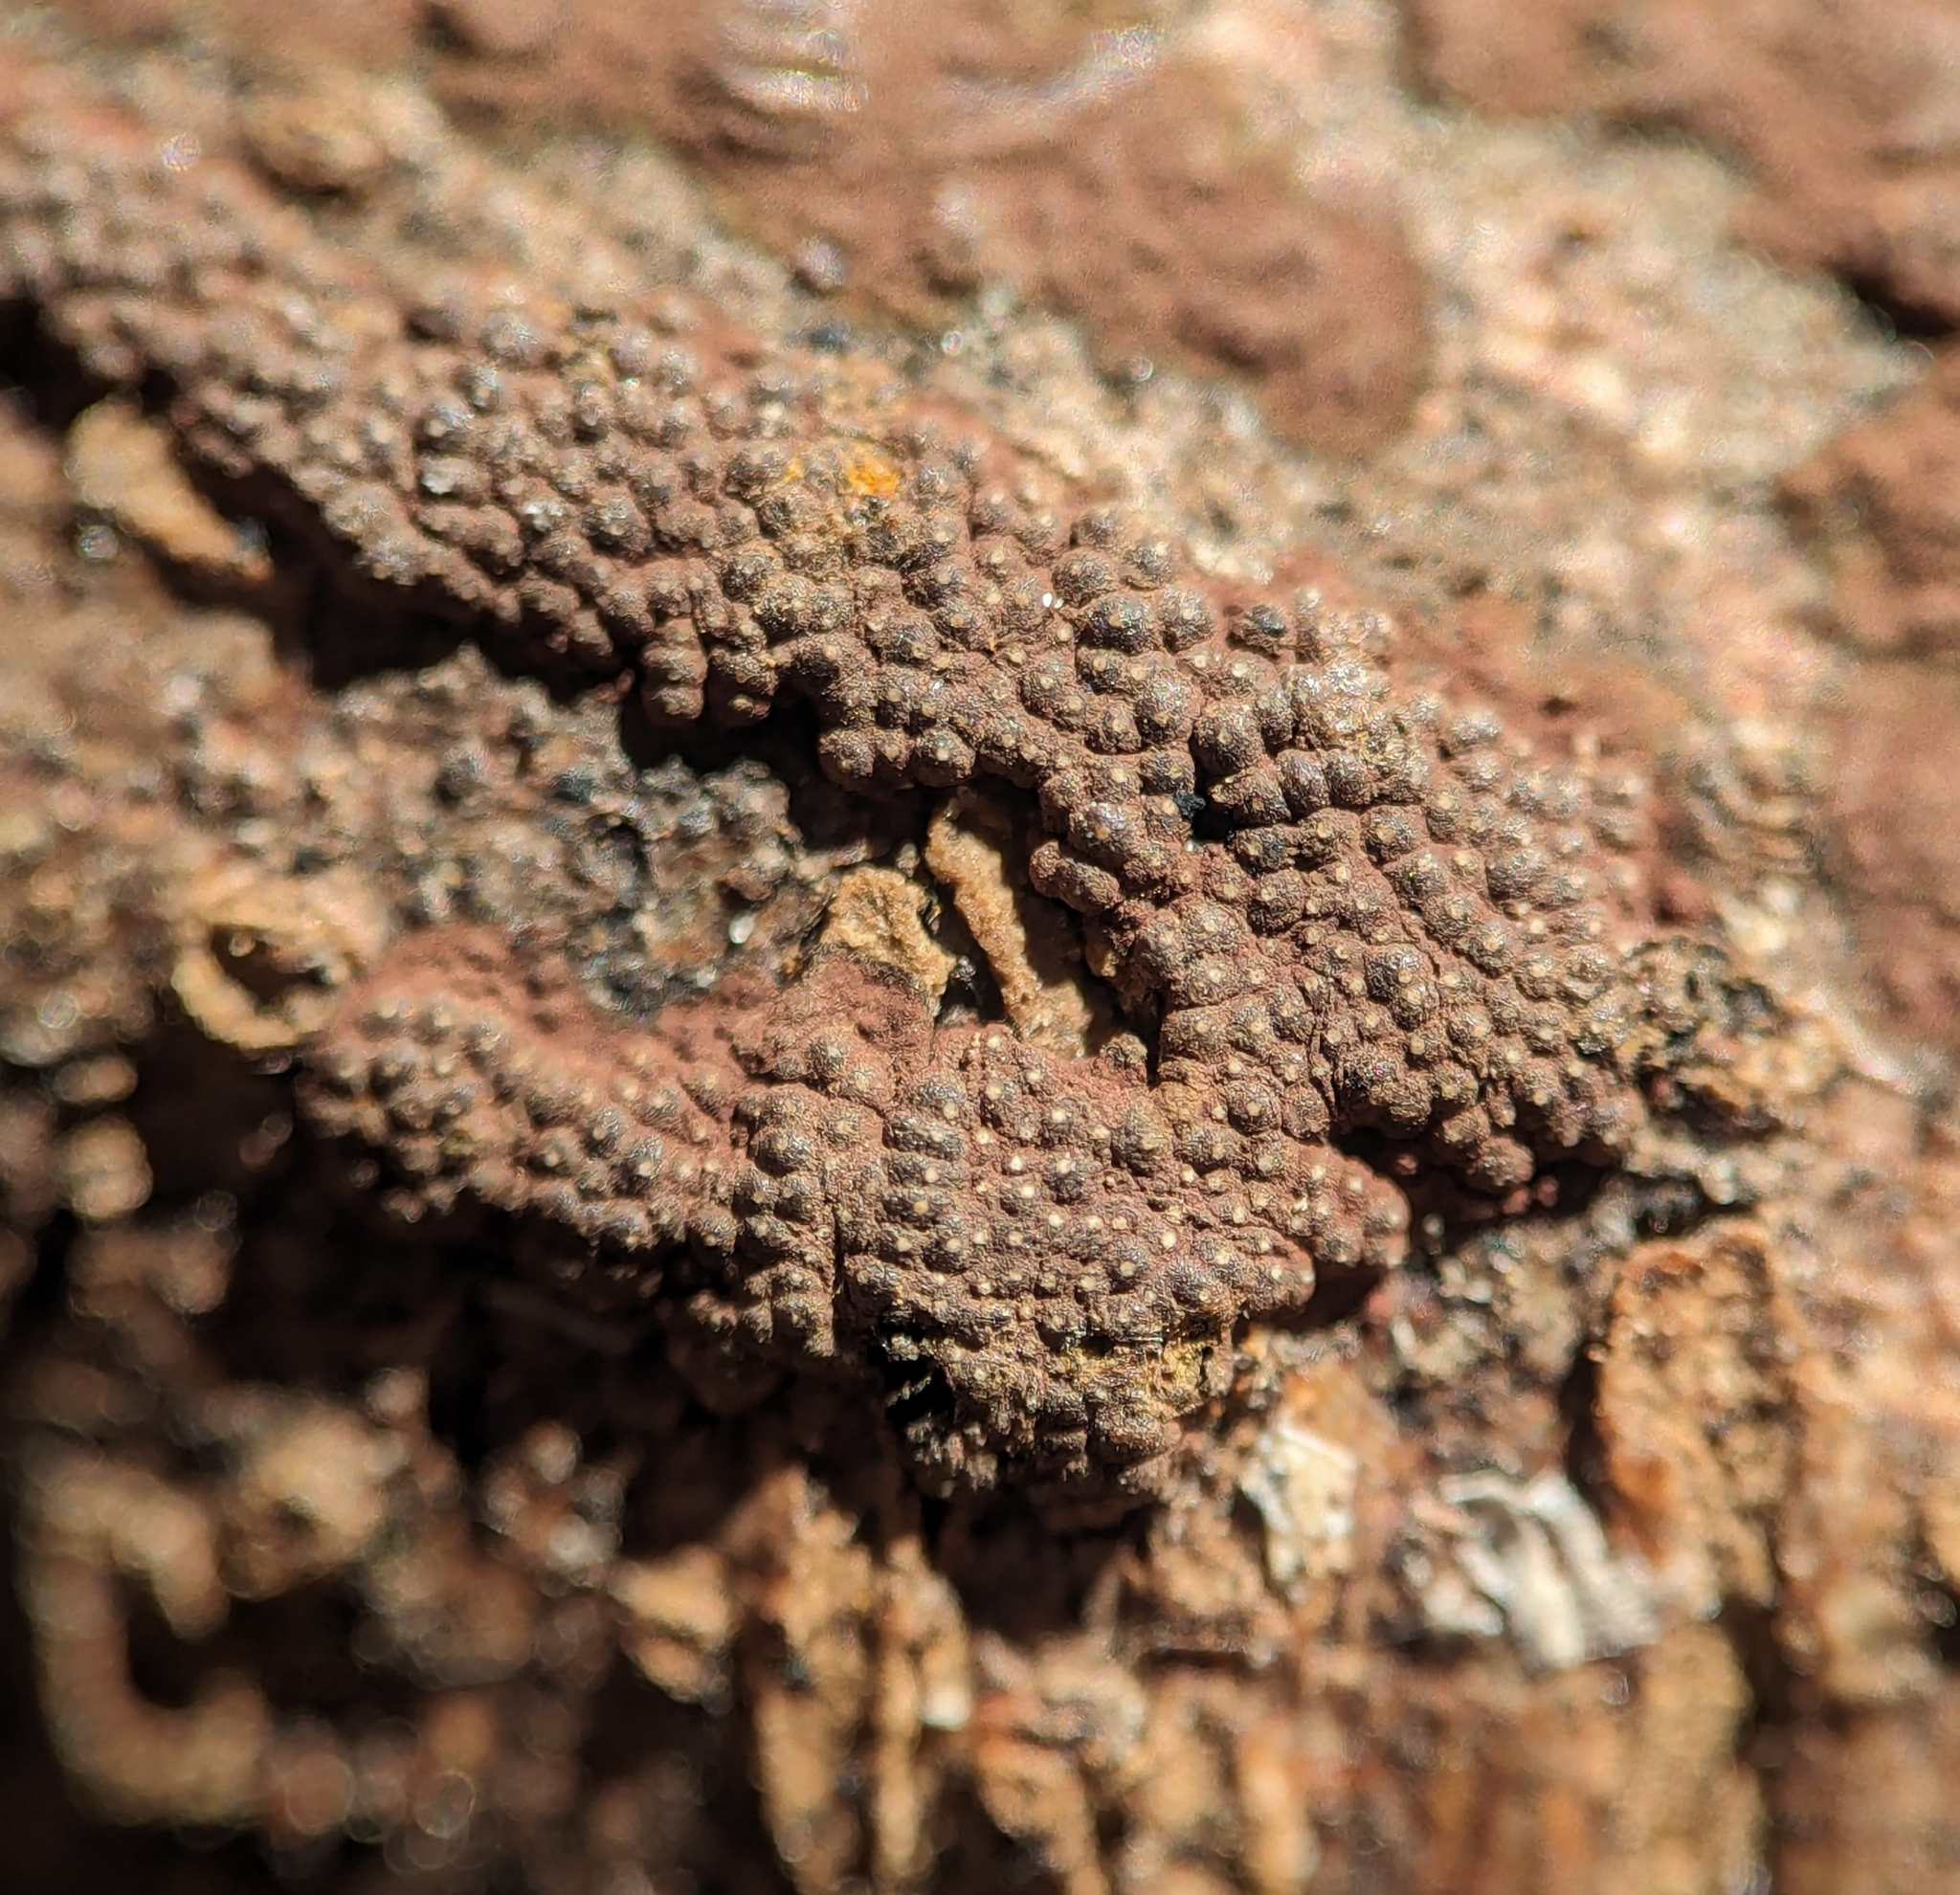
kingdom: Fungi
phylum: Ascomycota
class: Sordariomycetes
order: Xylariales
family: Hypoxylaceae
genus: Hypoxylon
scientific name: Hypoxylon perforatum
